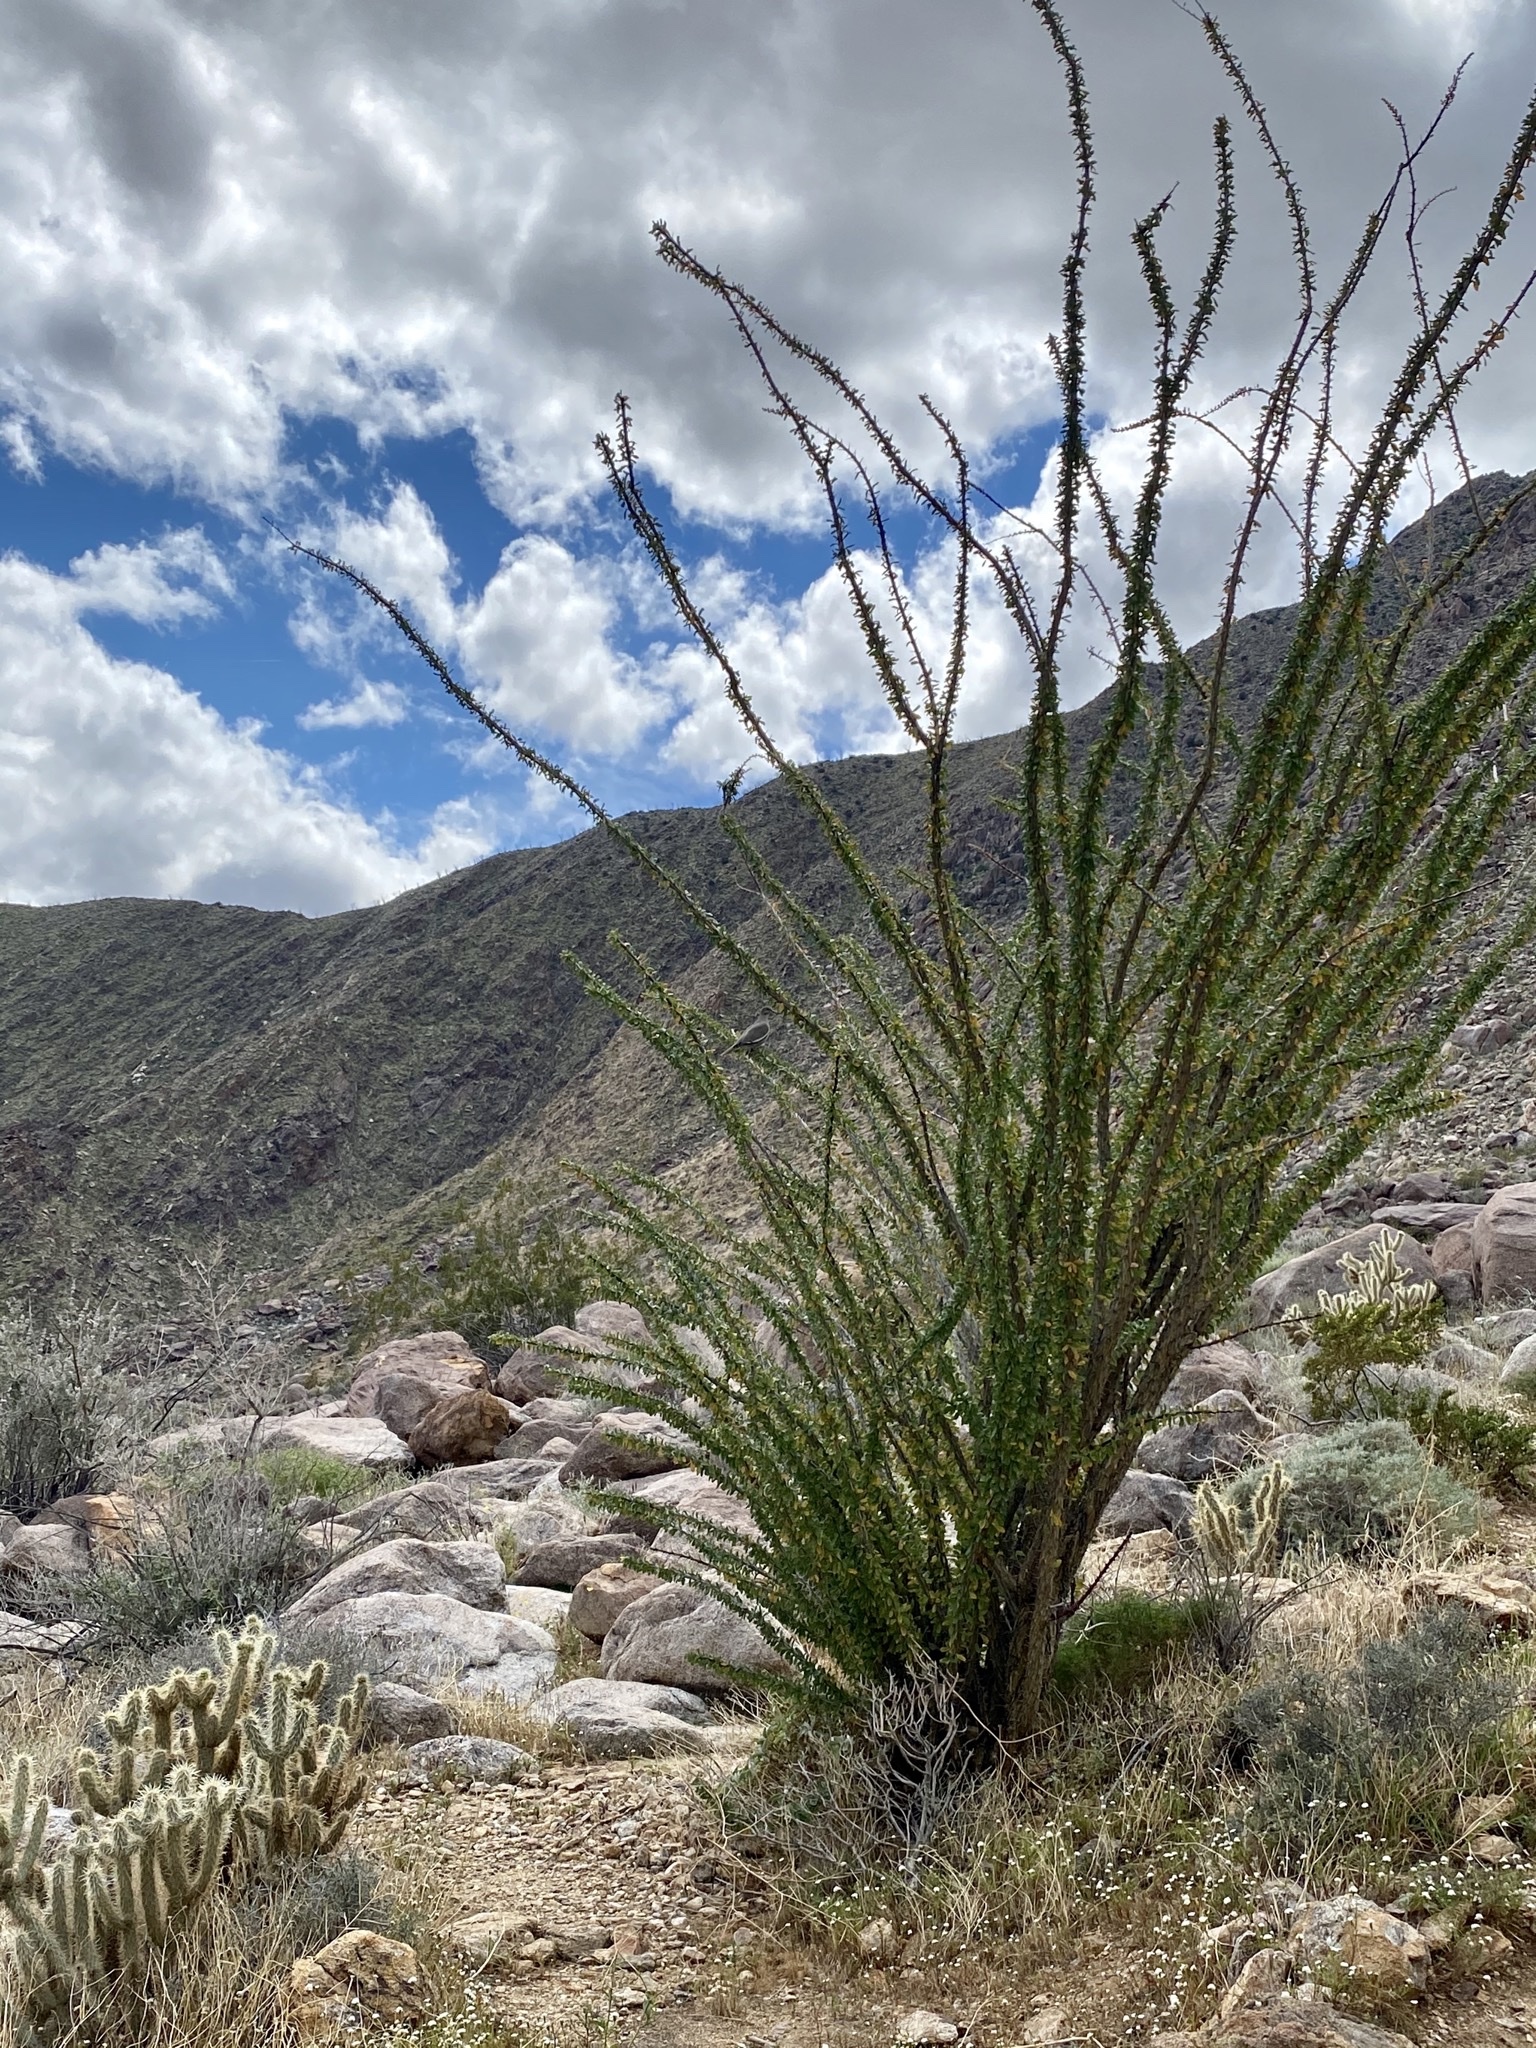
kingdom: Plantae
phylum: Tracheophyta
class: Magnoliopsida
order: Ericales
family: Fouquieriaceae
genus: Fouquieria
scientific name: Fouquieria splendens
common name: Vine-cactus
